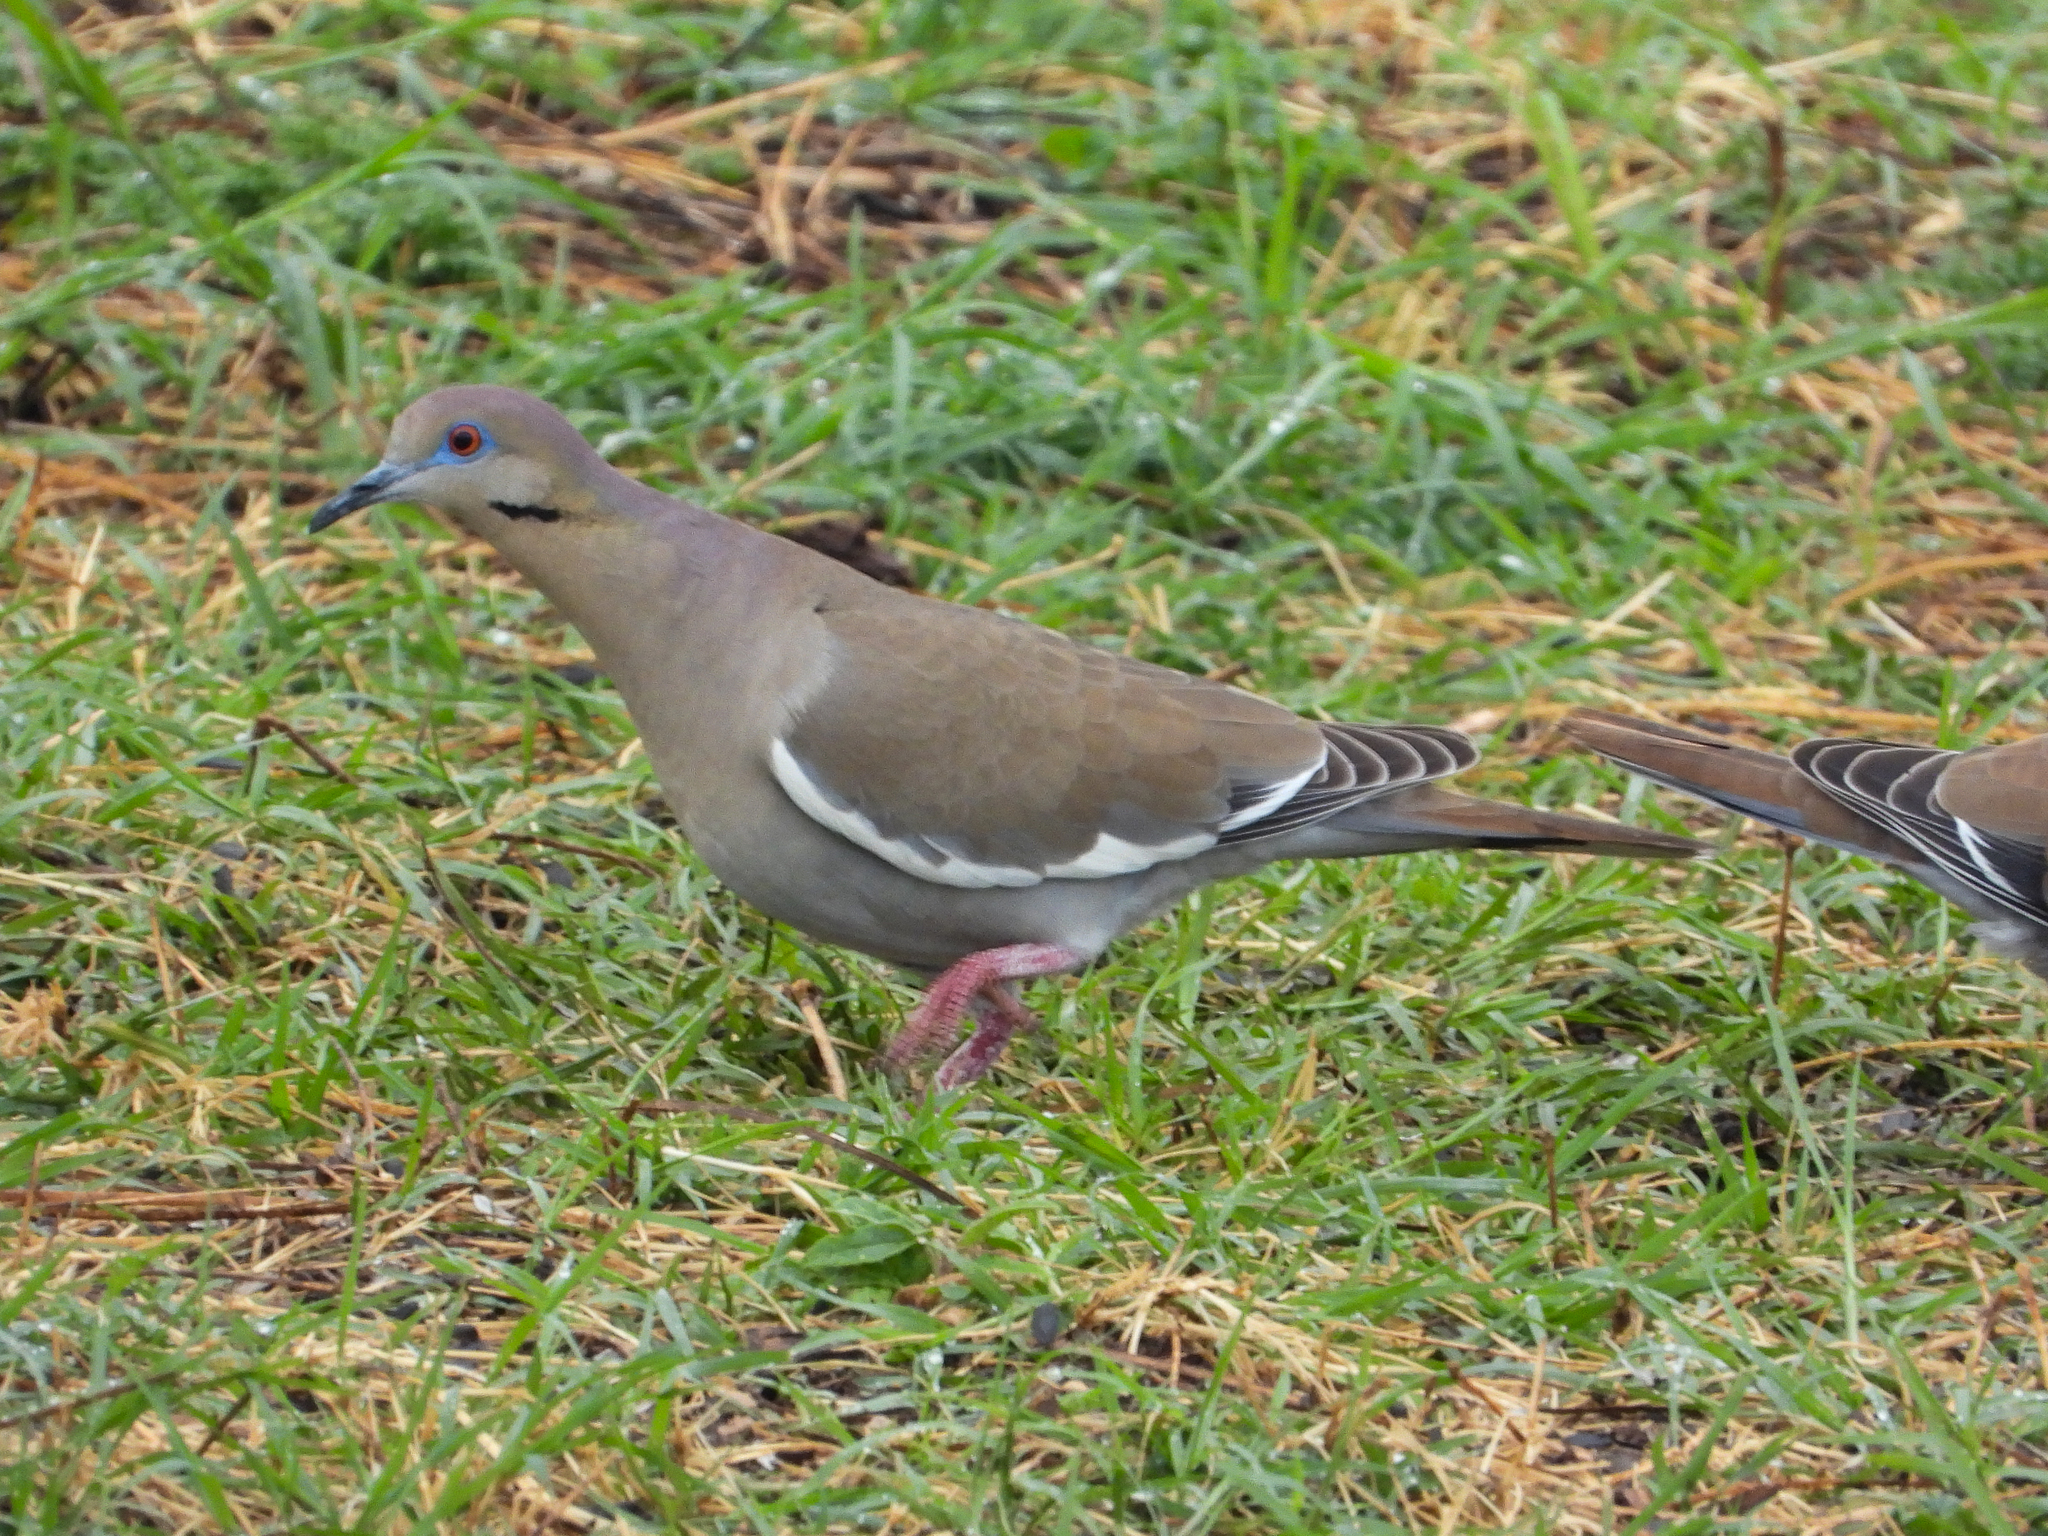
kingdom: Animalia
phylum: Chordata
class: Aves
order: Columbiformes
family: Columbidae
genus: Zenaida
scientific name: Zenaida asiatica
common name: White-winged dove
